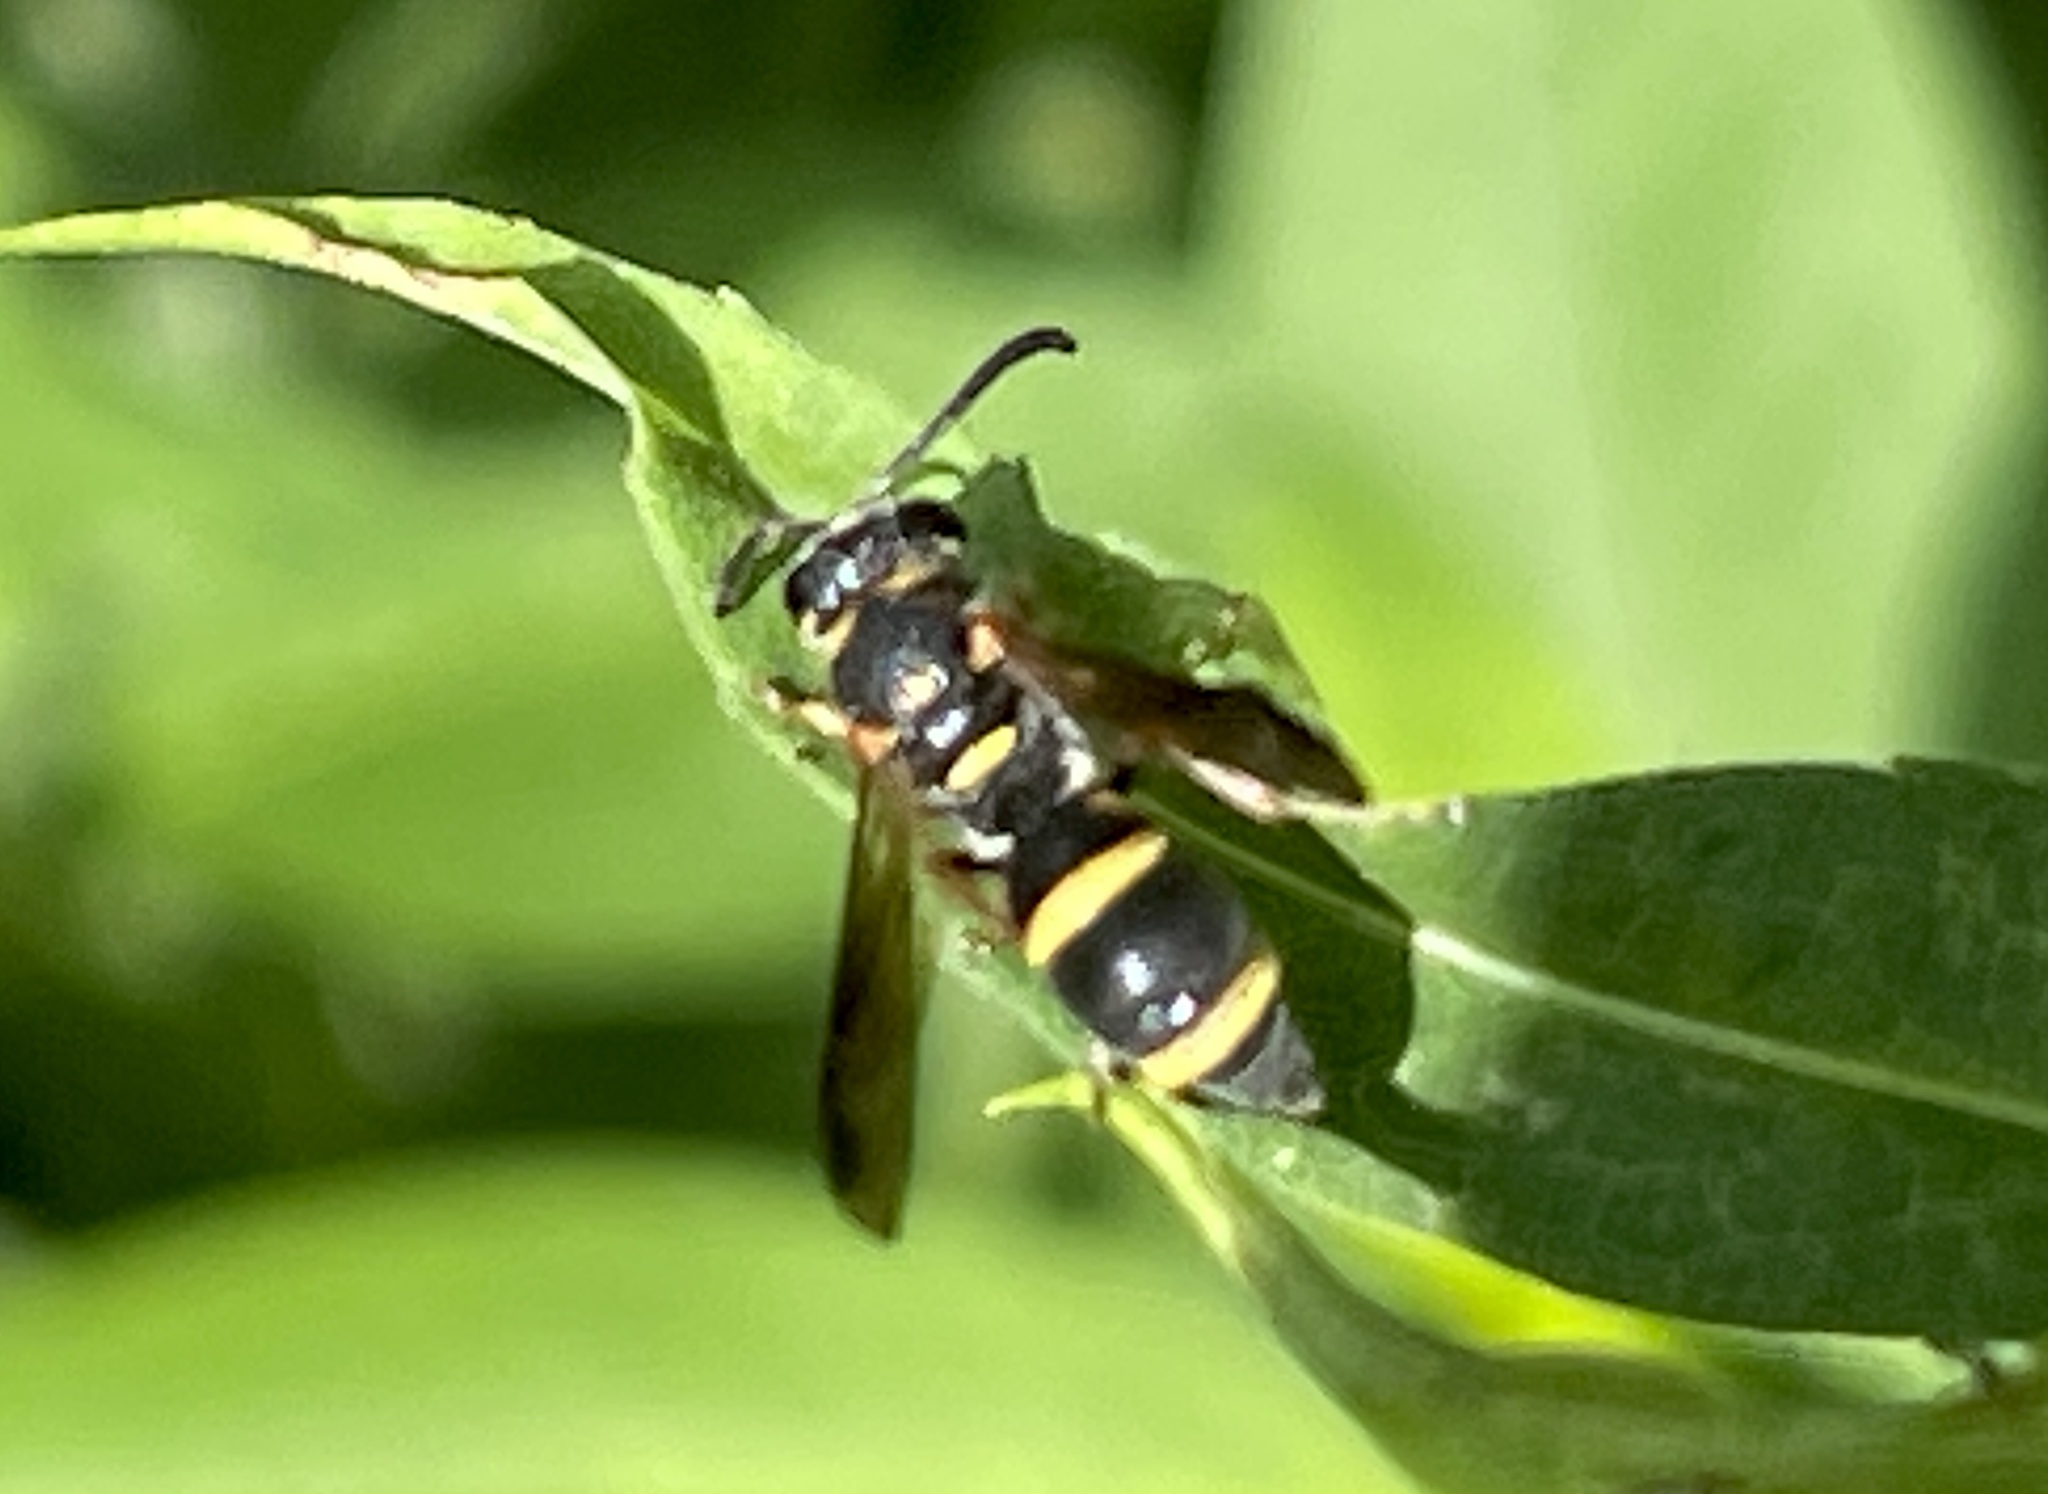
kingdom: Animalia
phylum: Arthropoda
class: Insecta
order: Hymenoptera
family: Eumenidae
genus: Parancistrocerus
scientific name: Parancistrocerus perennis
